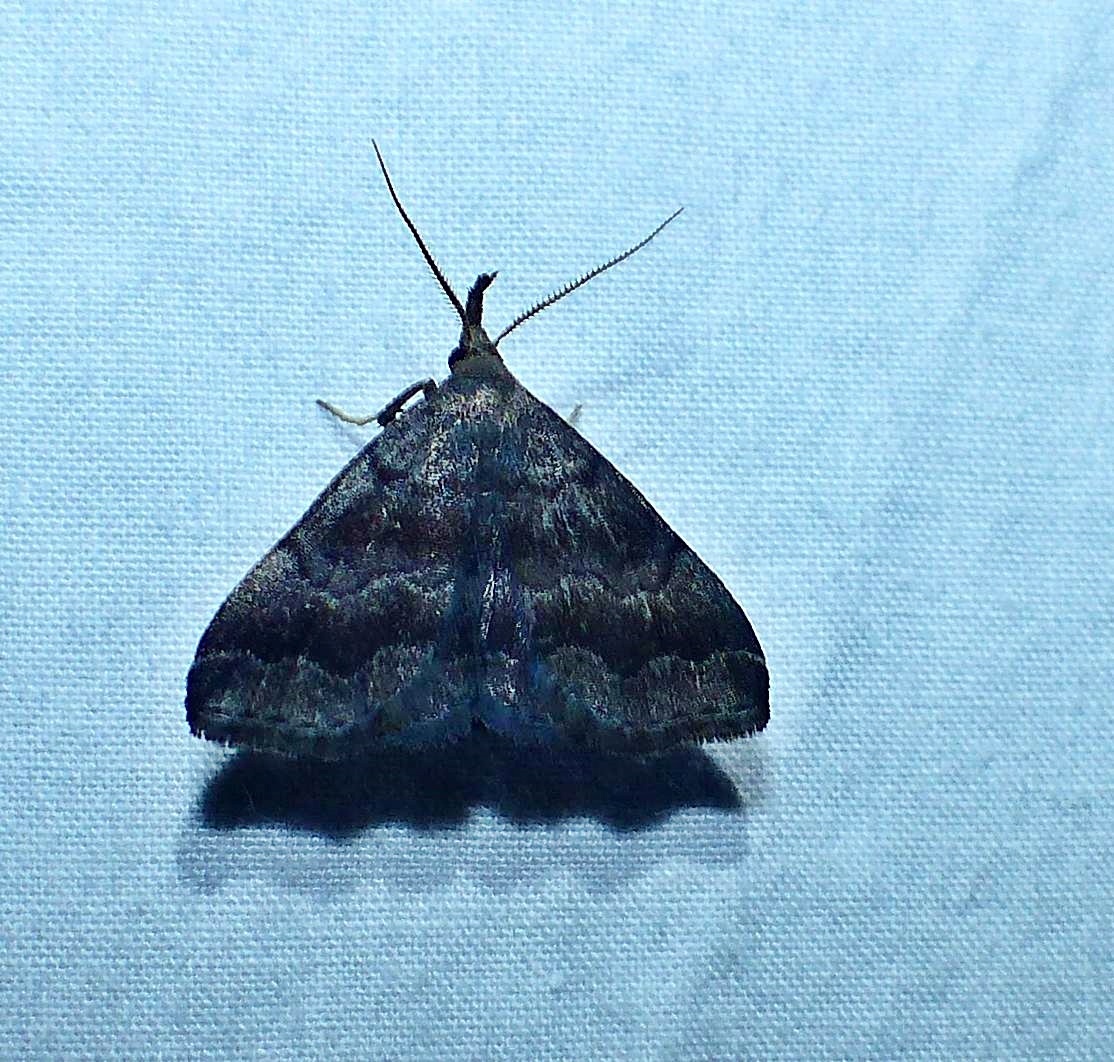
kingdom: Animalia
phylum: Arthropoda
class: Insecta
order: Lepidoptera
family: Erebidae
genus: Phalaenostola
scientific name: Phalaenostola larentioides
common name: Black-banded owlet
